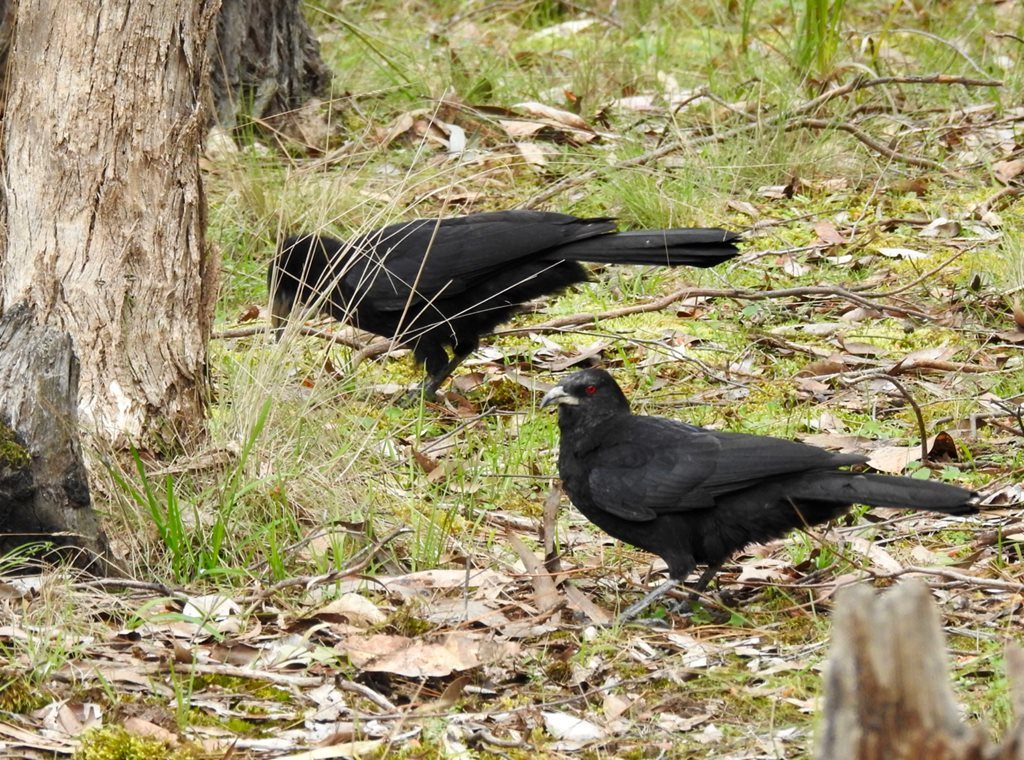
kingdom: Animalia
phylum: Chordata
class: Aves
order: Passeriformes
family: Corcoracidae
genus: Corcorax
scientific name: Corcorax melanoramphos
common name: White-winged chough
